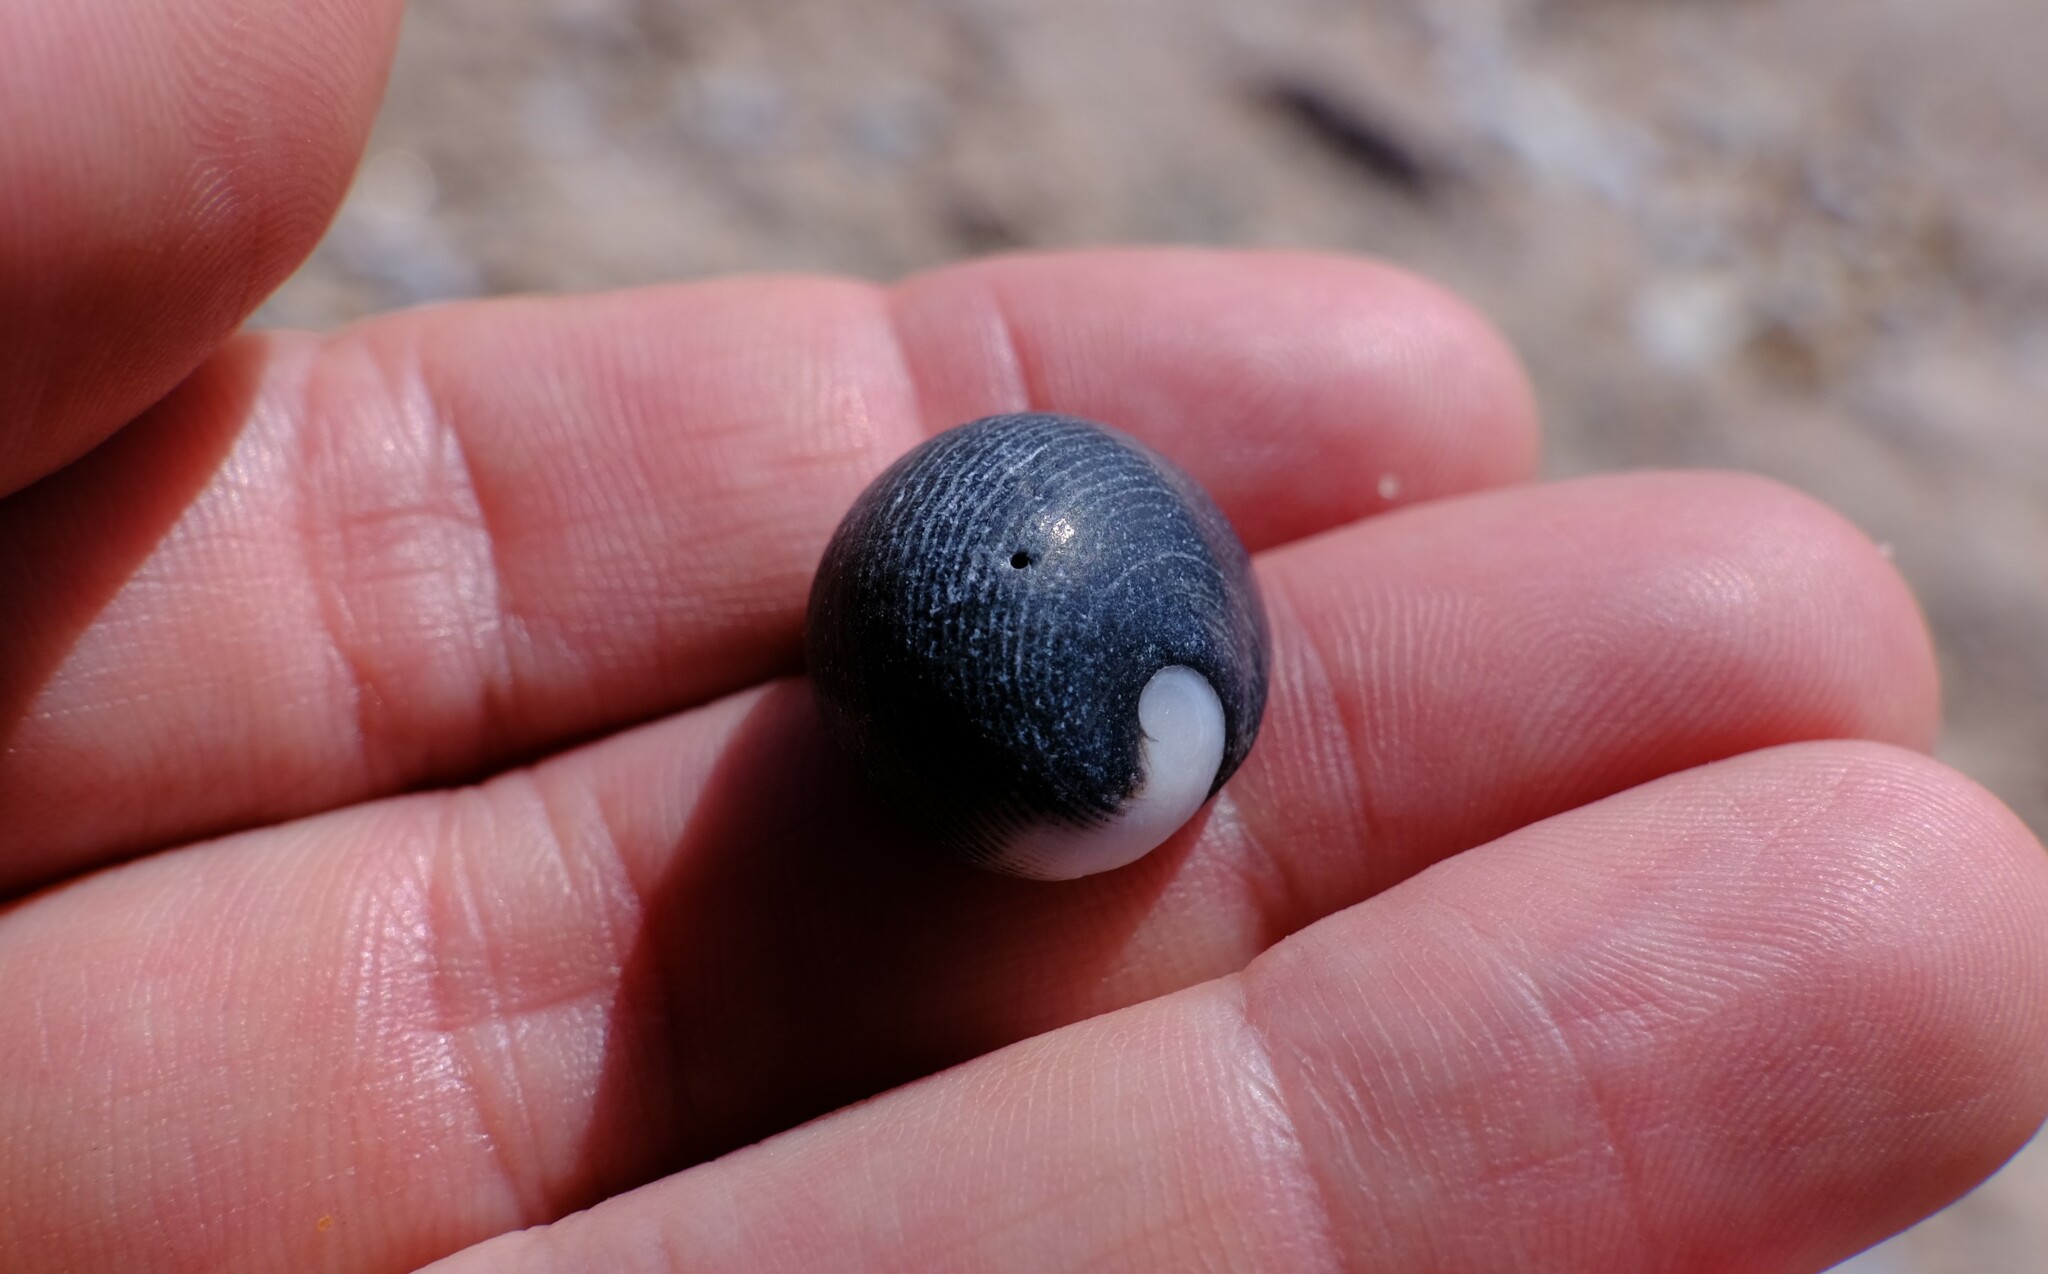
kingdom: Animalia
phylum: Mollusca
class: Gastropoda
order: Cycloneritida
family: Neritidae
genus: Nerita
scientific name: Nerita atramentosa
